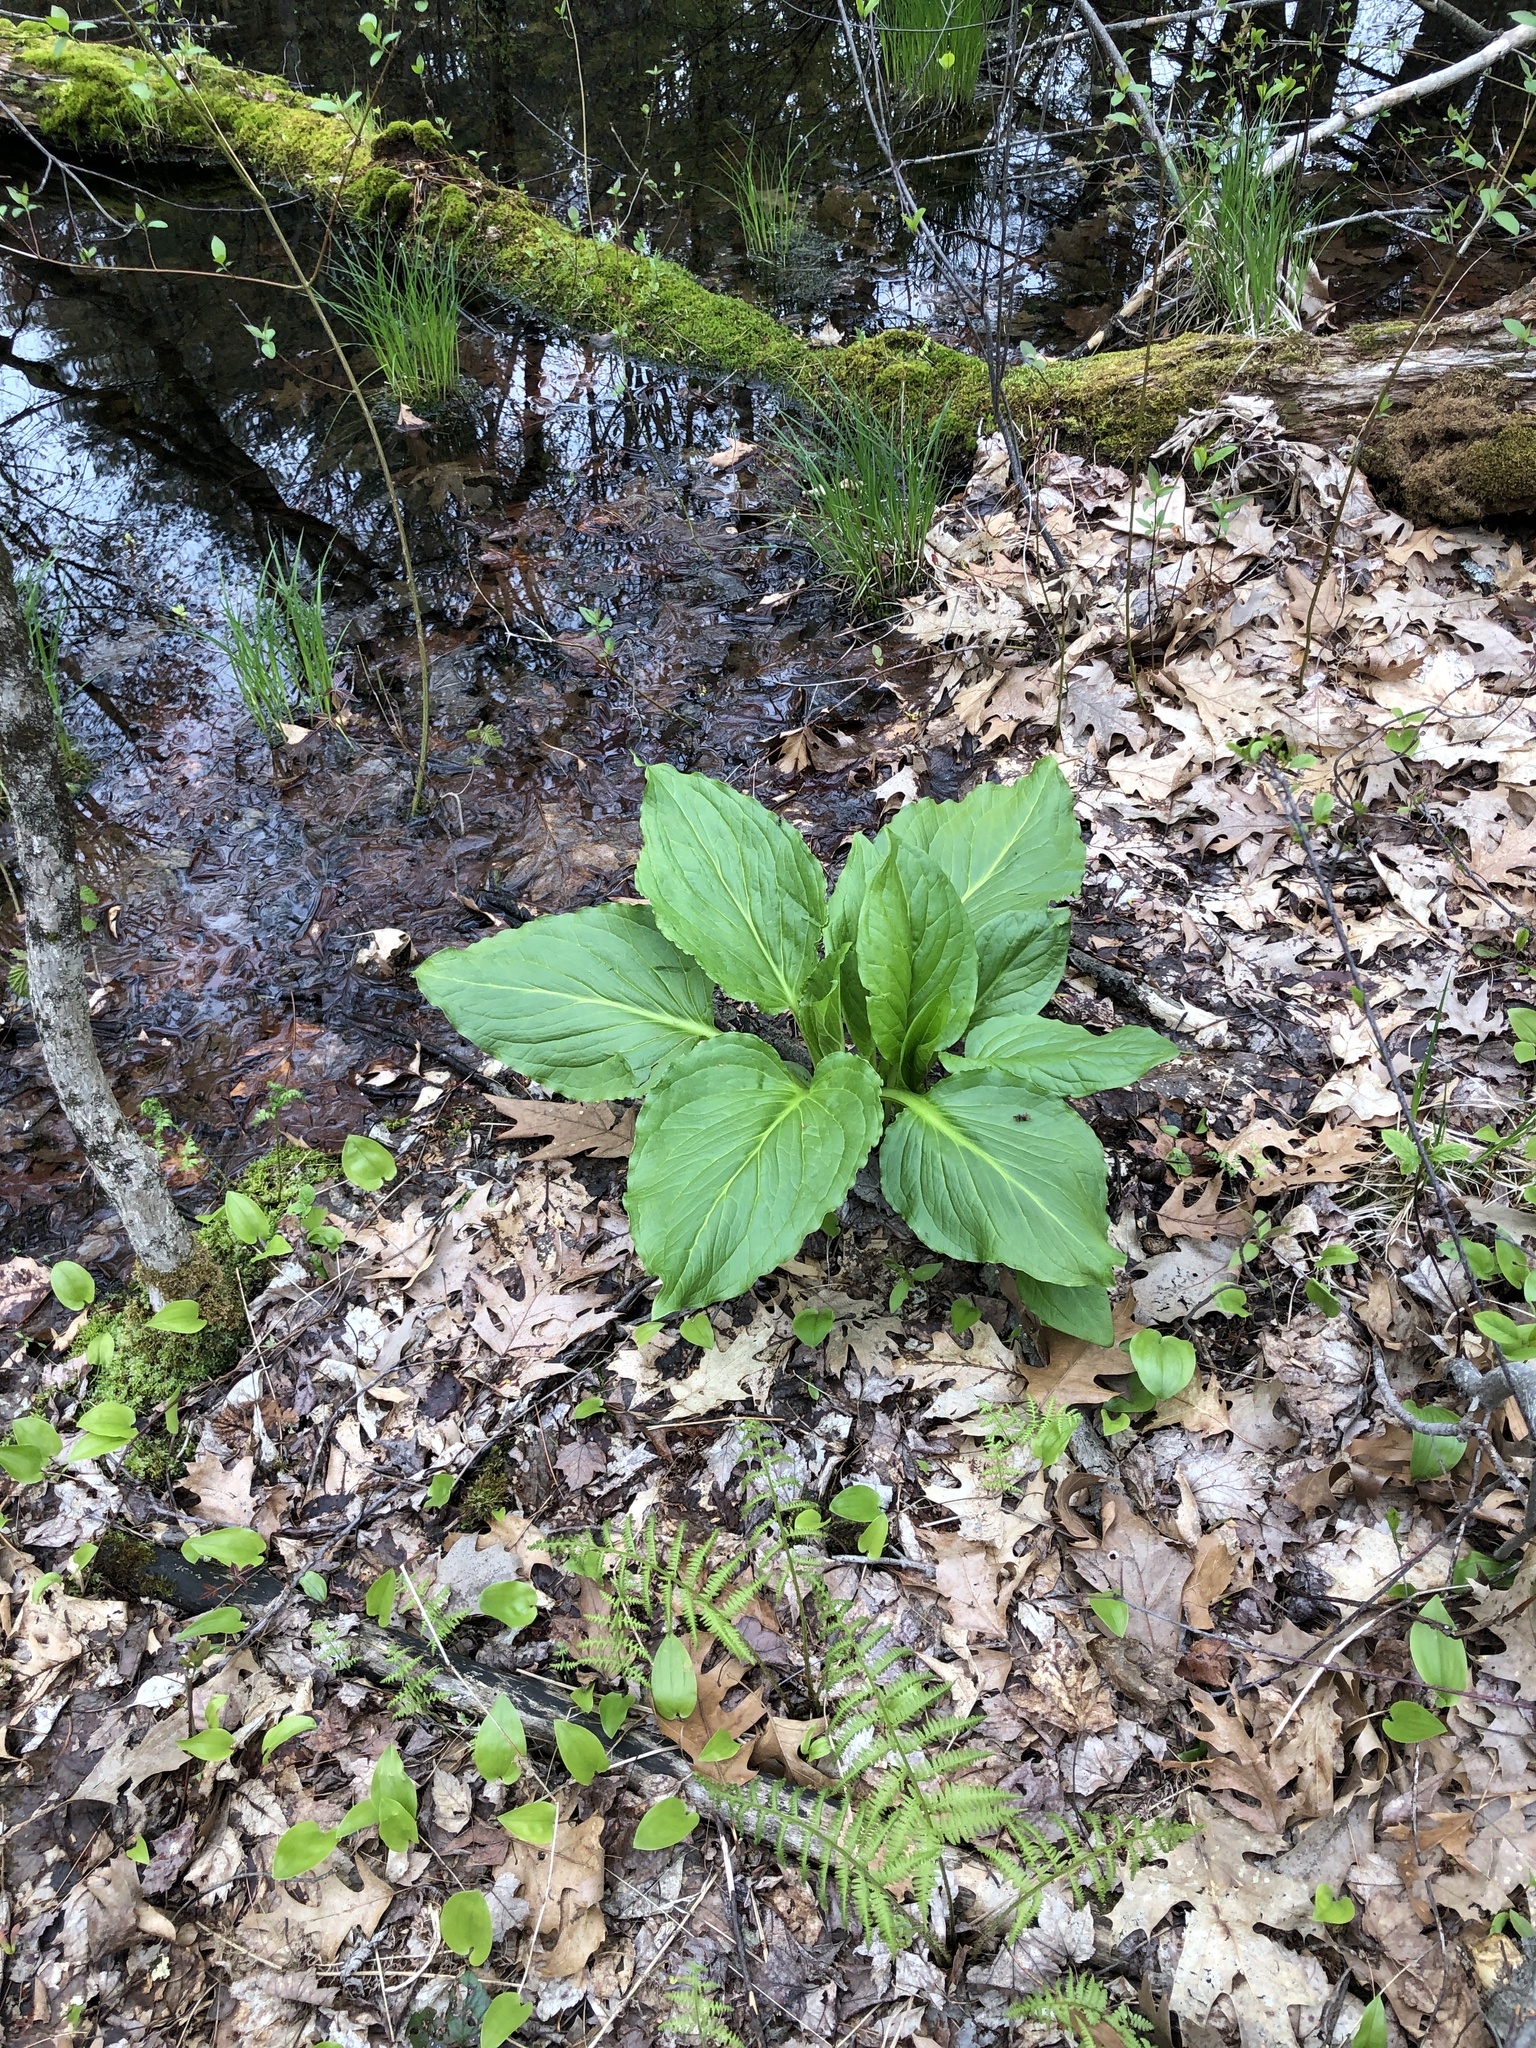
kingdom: Plantae
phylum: Tracheophyta
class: Liliopsida
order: Alismatales
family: Araceae
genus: Symplocarpus
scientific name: Symplocarpus foetidus
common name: Eastern skunk cabbage
